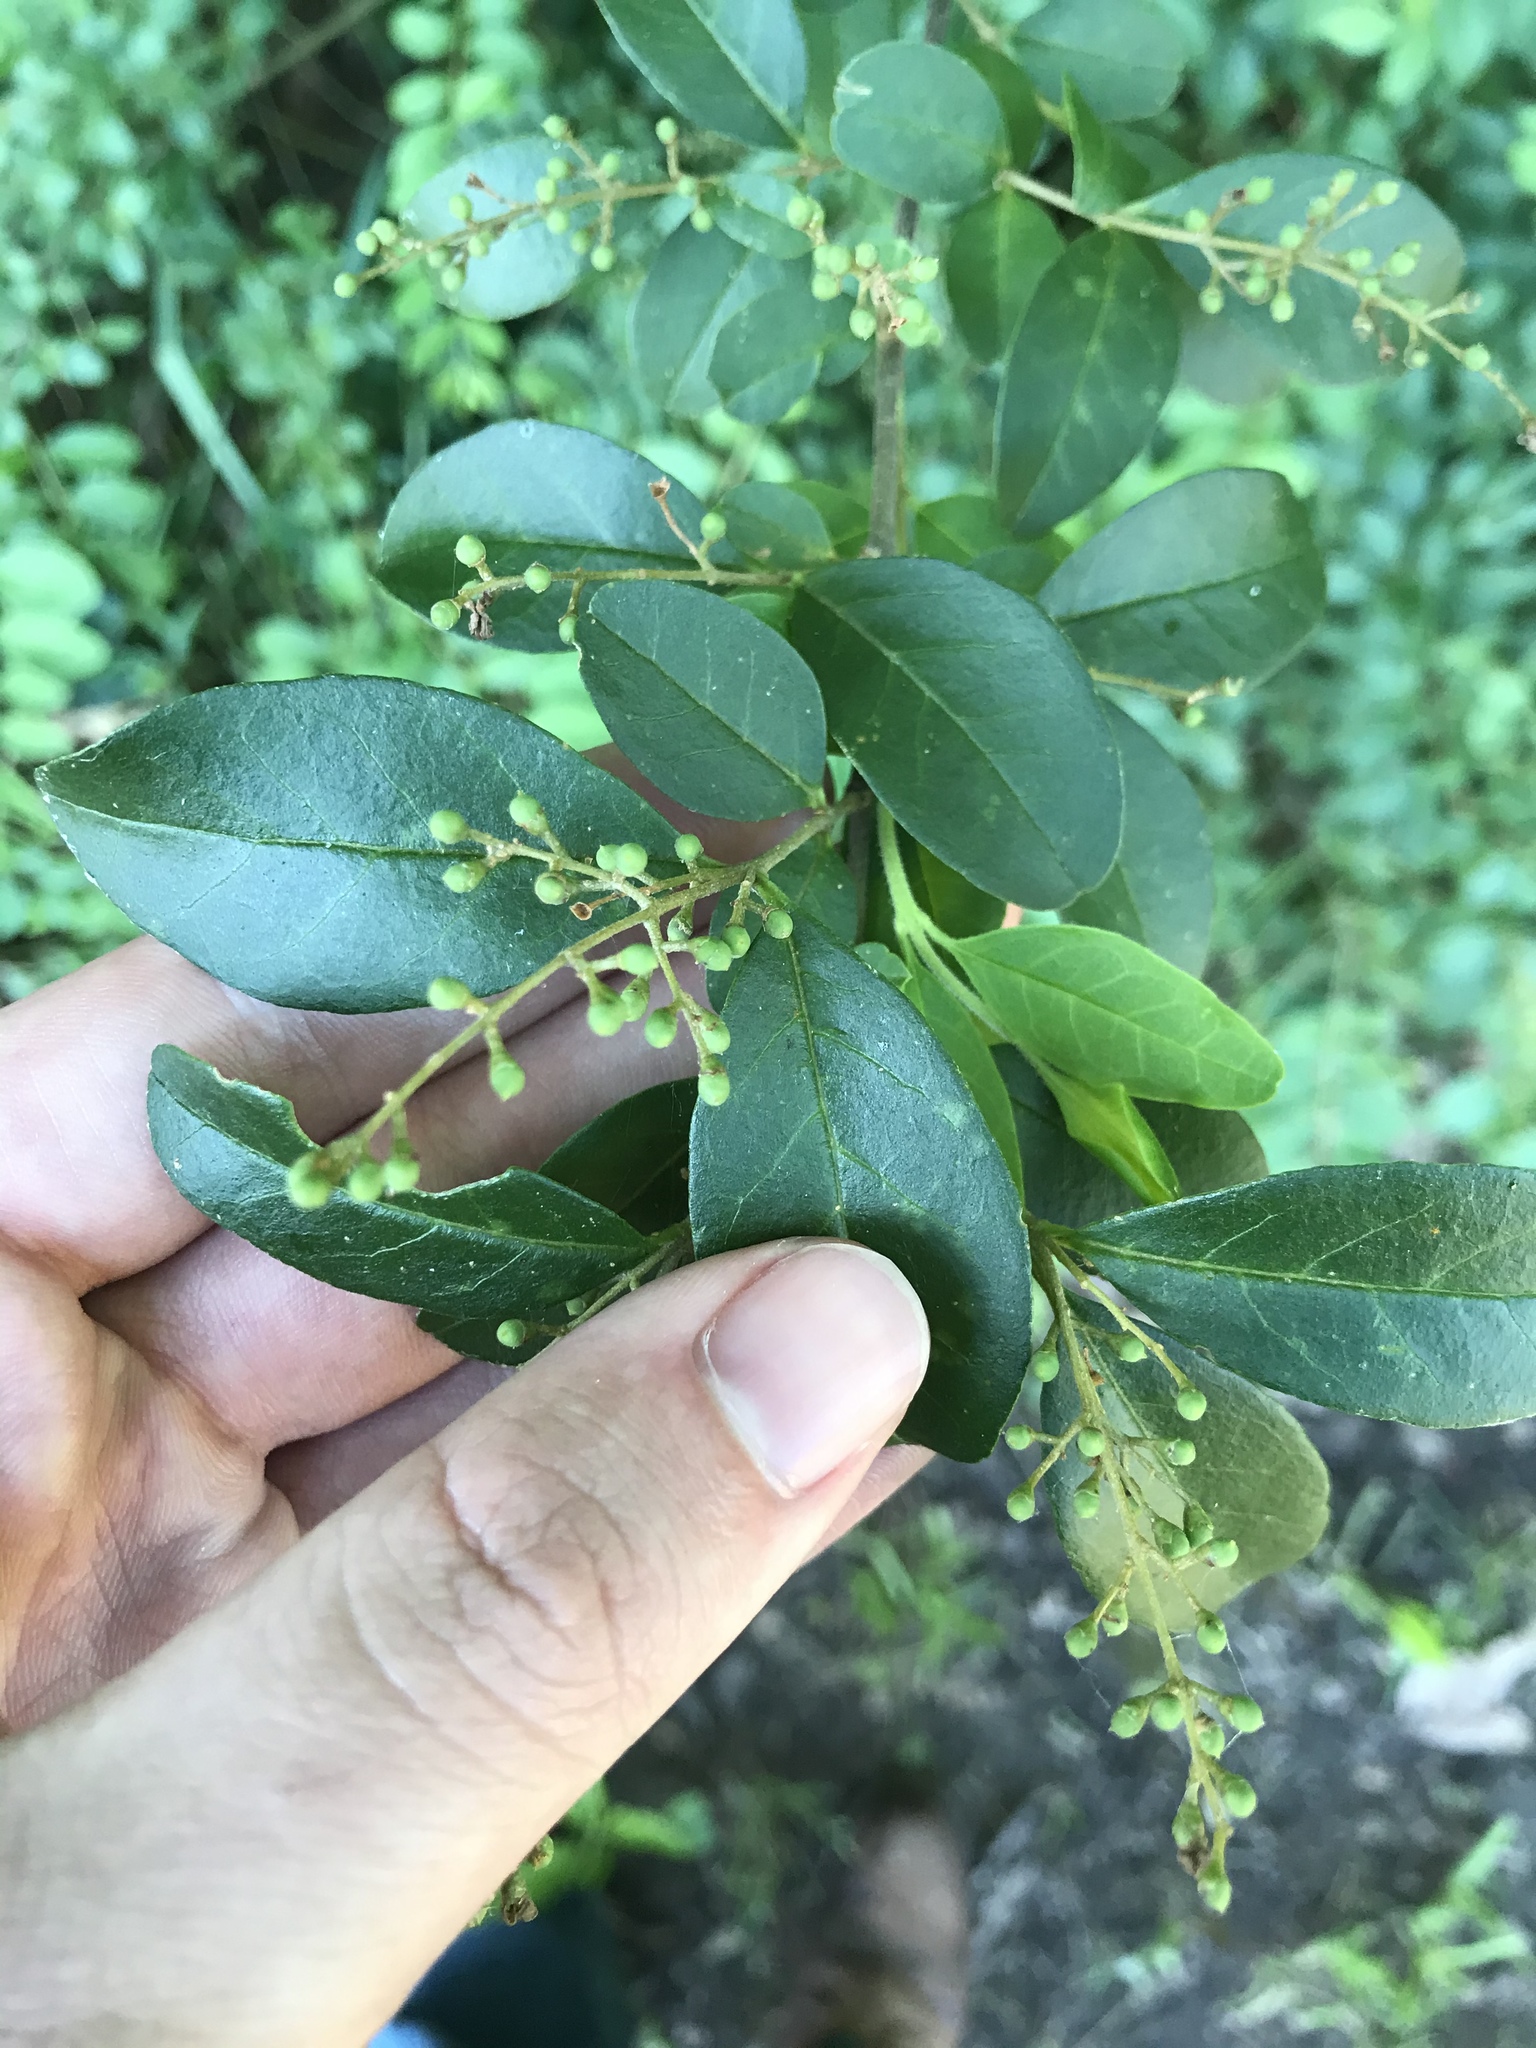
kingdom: Plantae
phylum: Tracheophyta
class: Magnoliopsida
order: Lamiales
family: Oleaceae
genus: Ligustrum
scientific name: Ligustrum sinense
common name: Chinese privet
